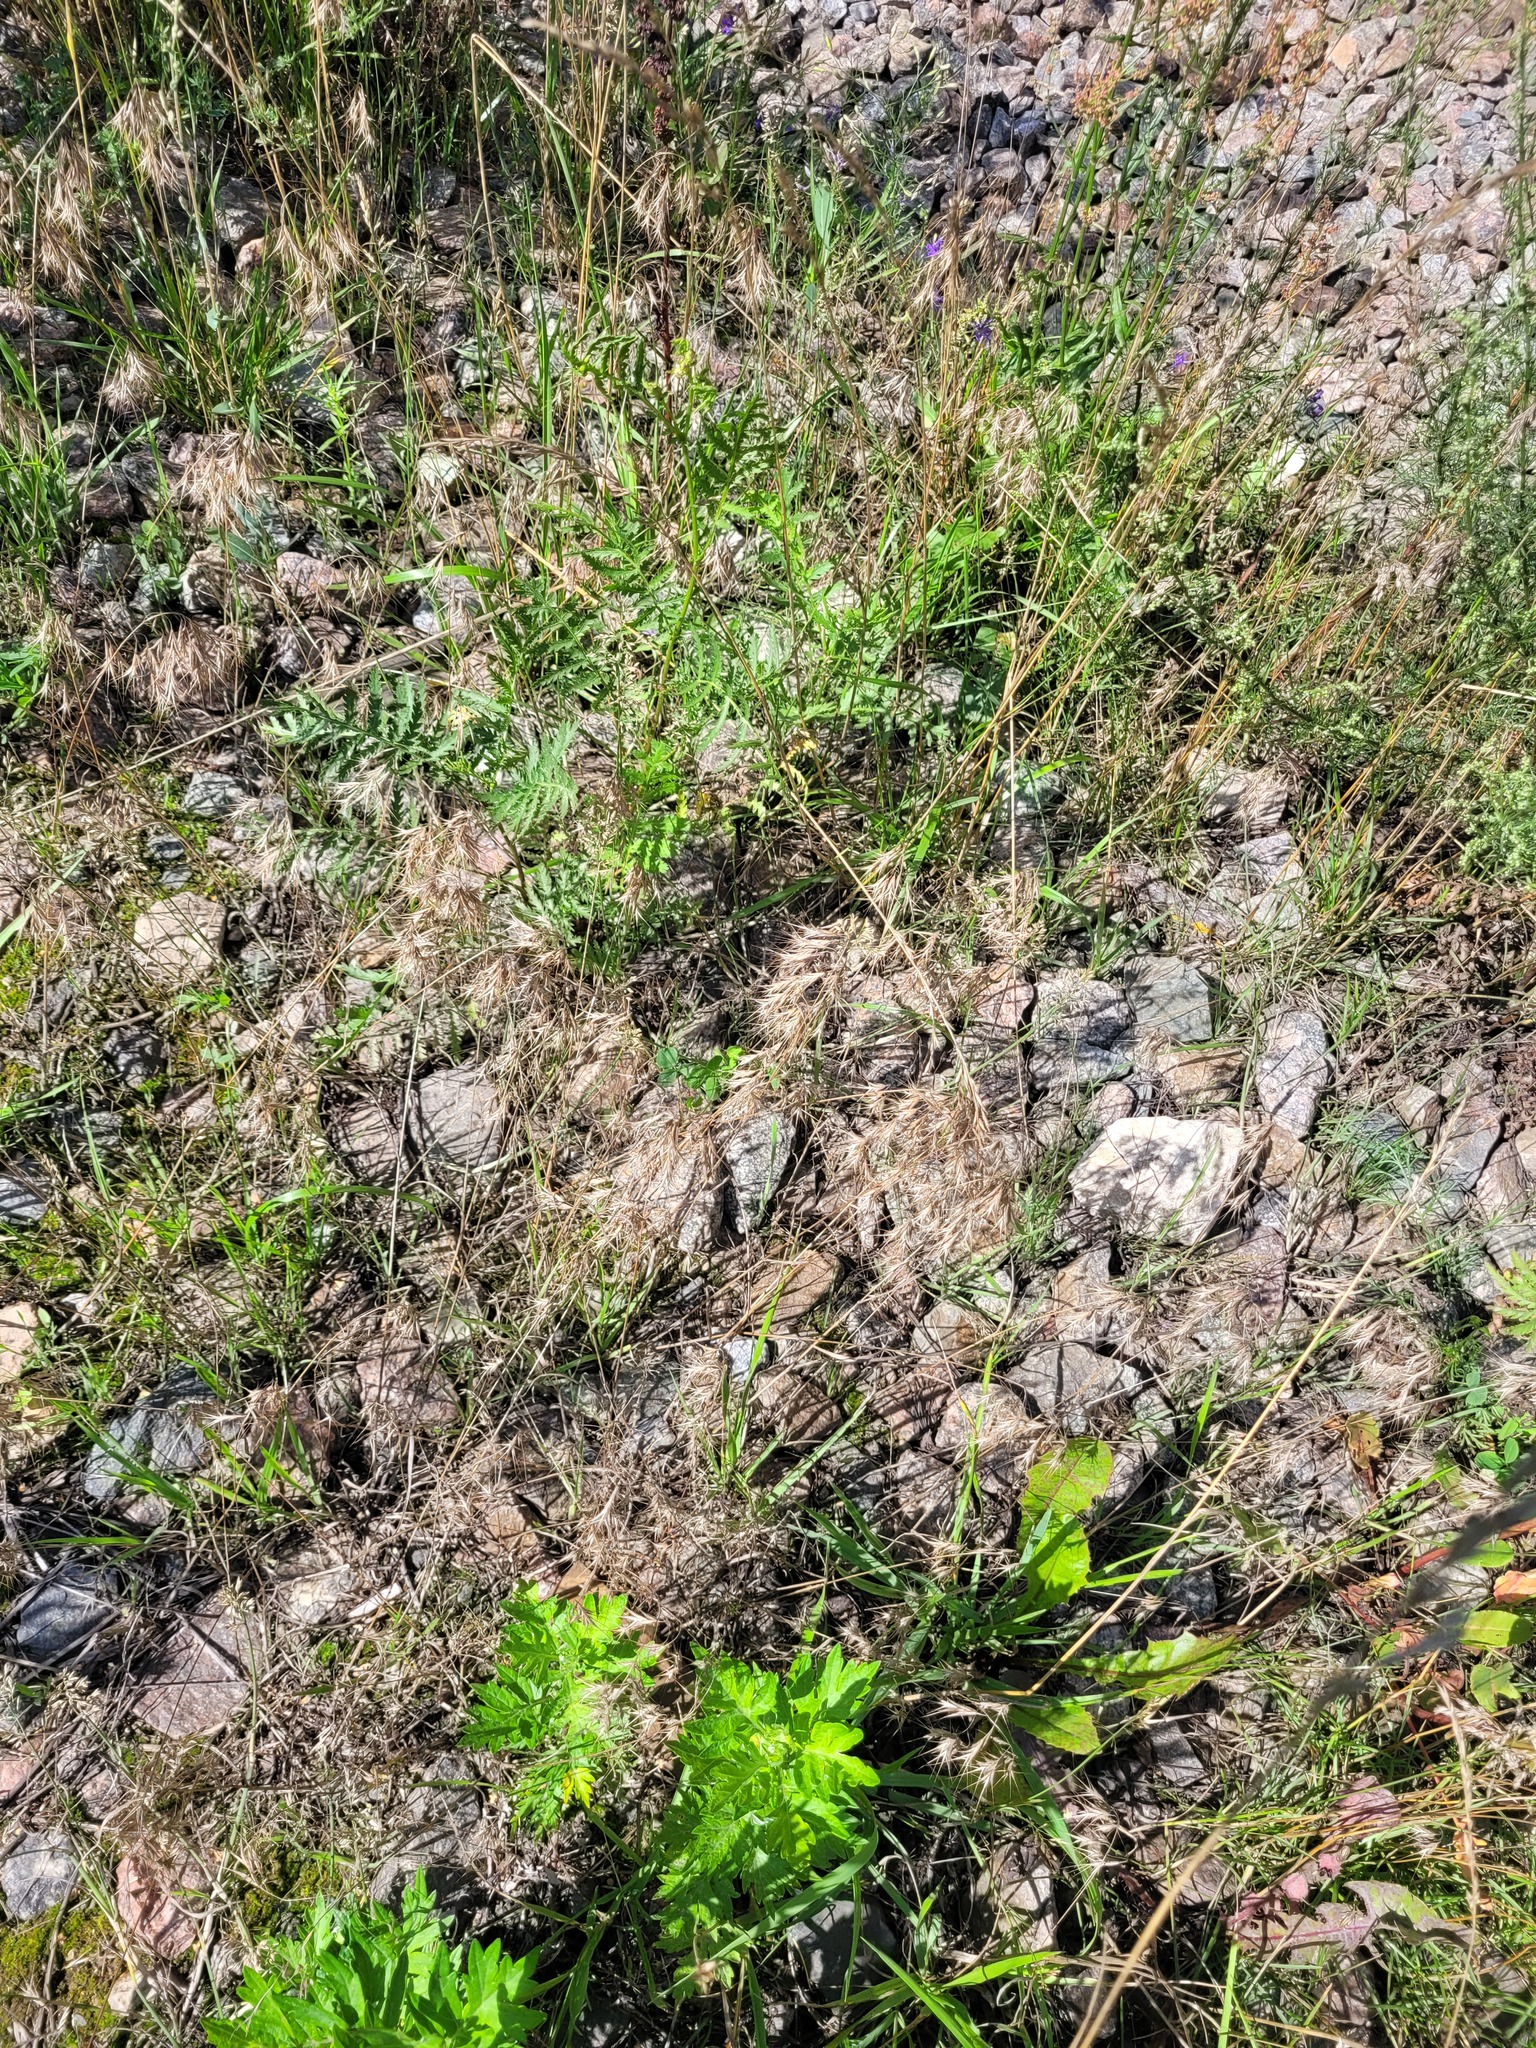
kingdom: Plantae
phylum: Tracheophyta
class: Liliopsida
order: Poales
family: Poaceae
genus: Bromus
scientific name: Bromus tectorum
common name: Cheatgrass
